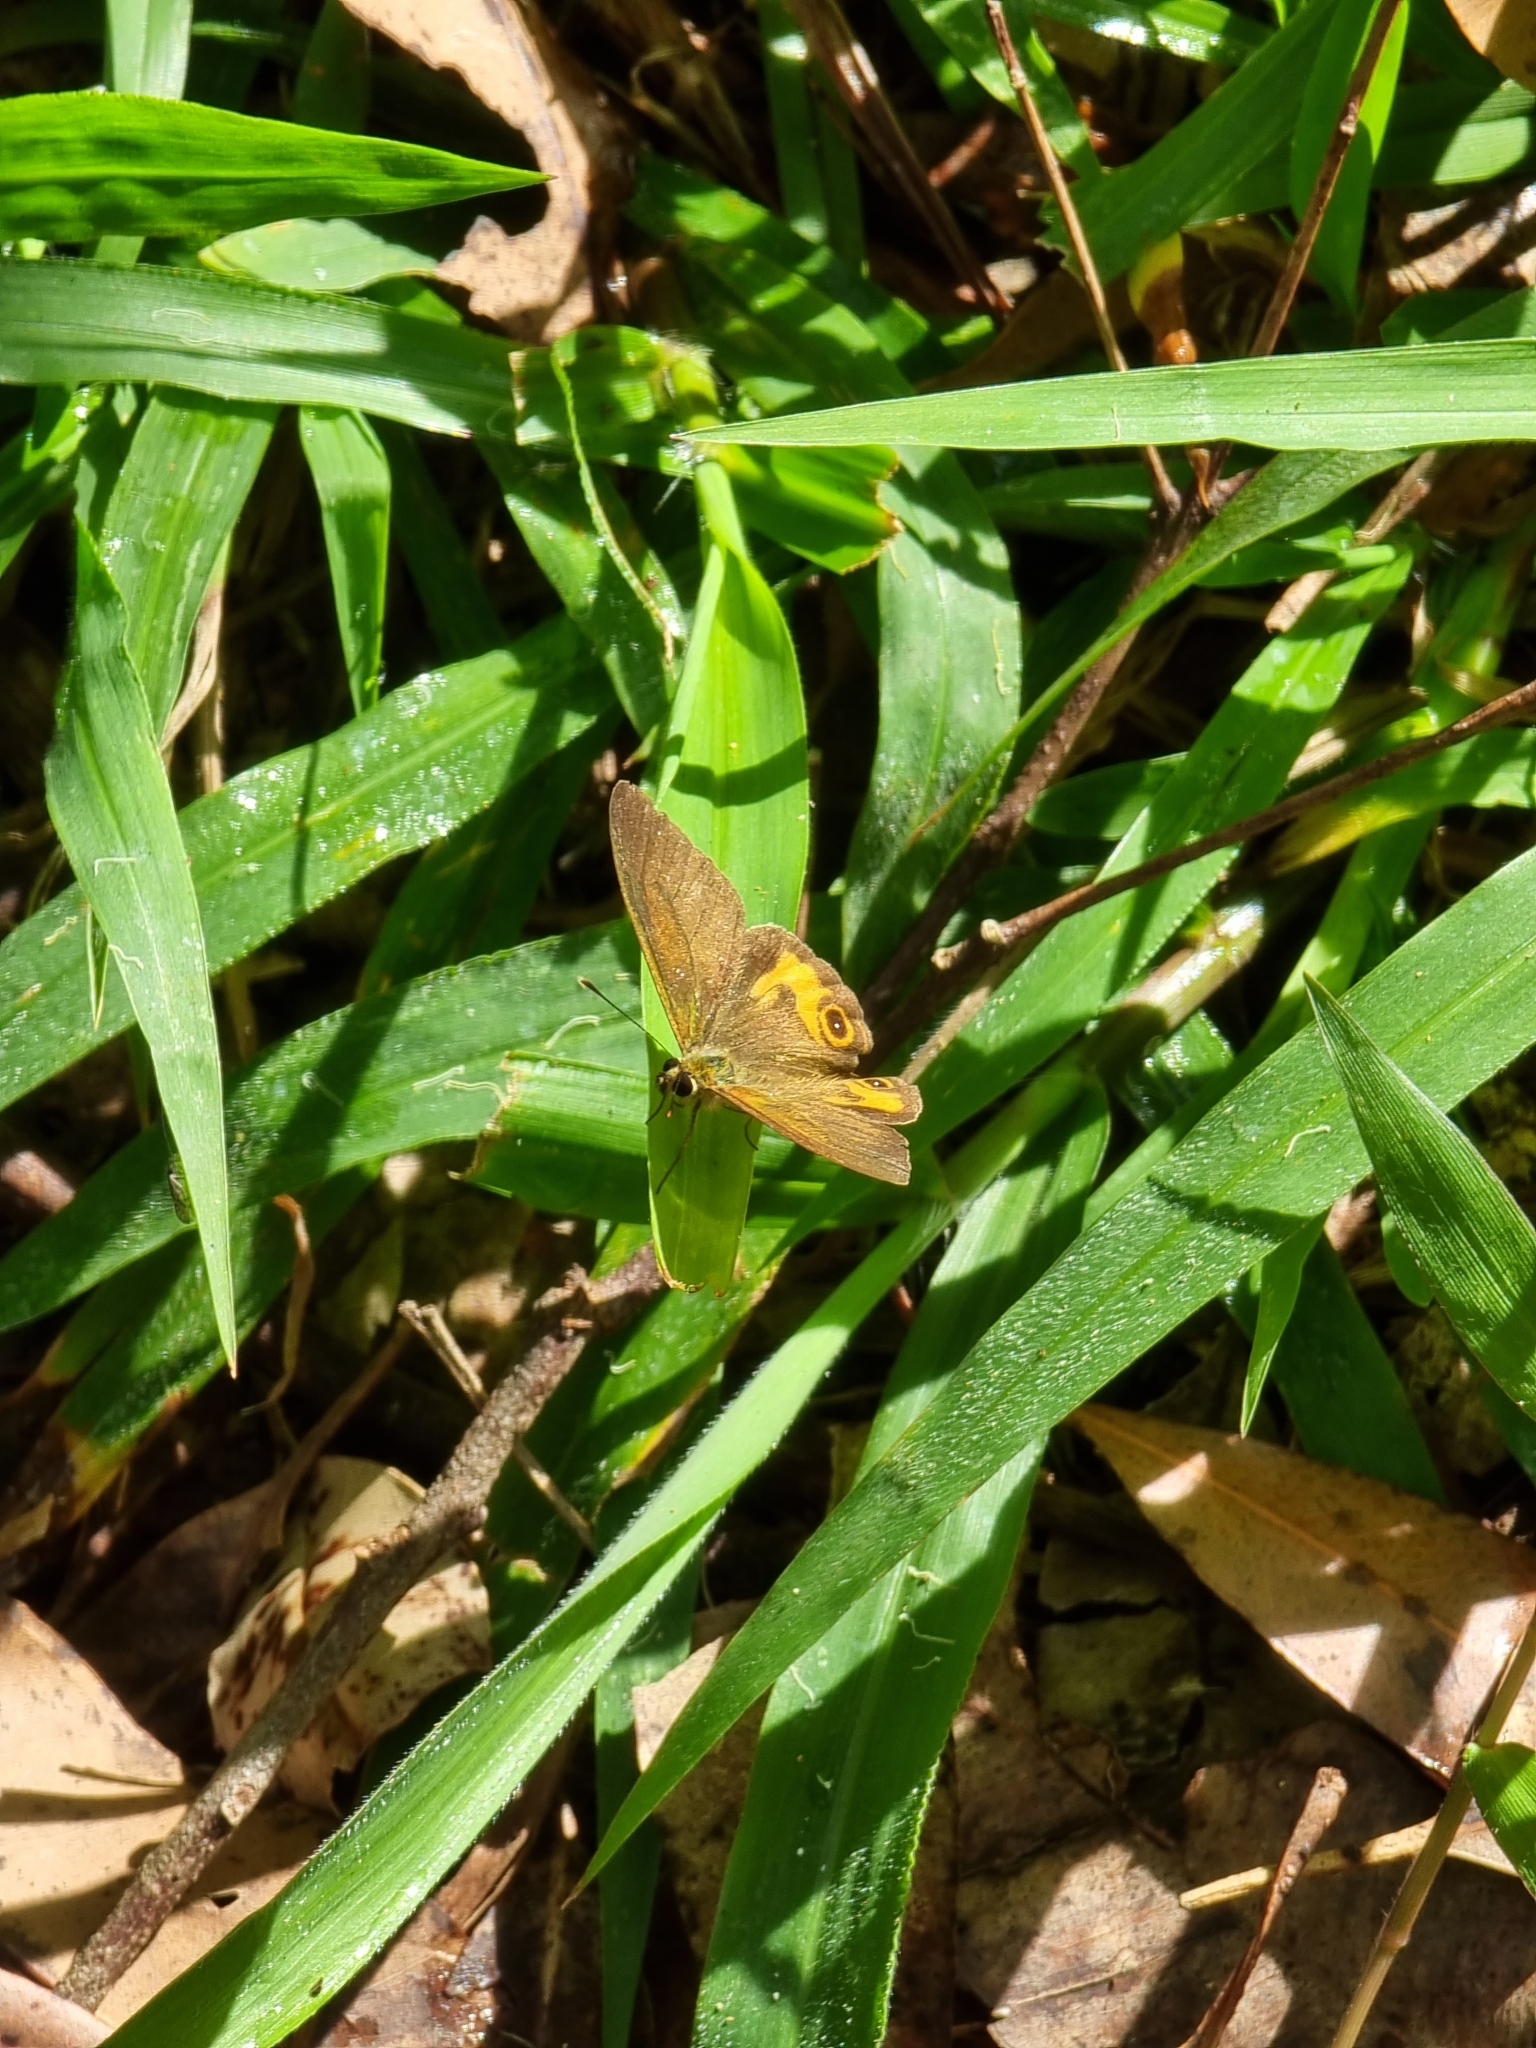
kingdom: Animalia
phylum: Arthropoda
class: Insecta
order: Lepidoptera
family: Nymphalidae
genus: Hypocysta
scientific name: Hypocysta metirius
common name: Brown ringlet
